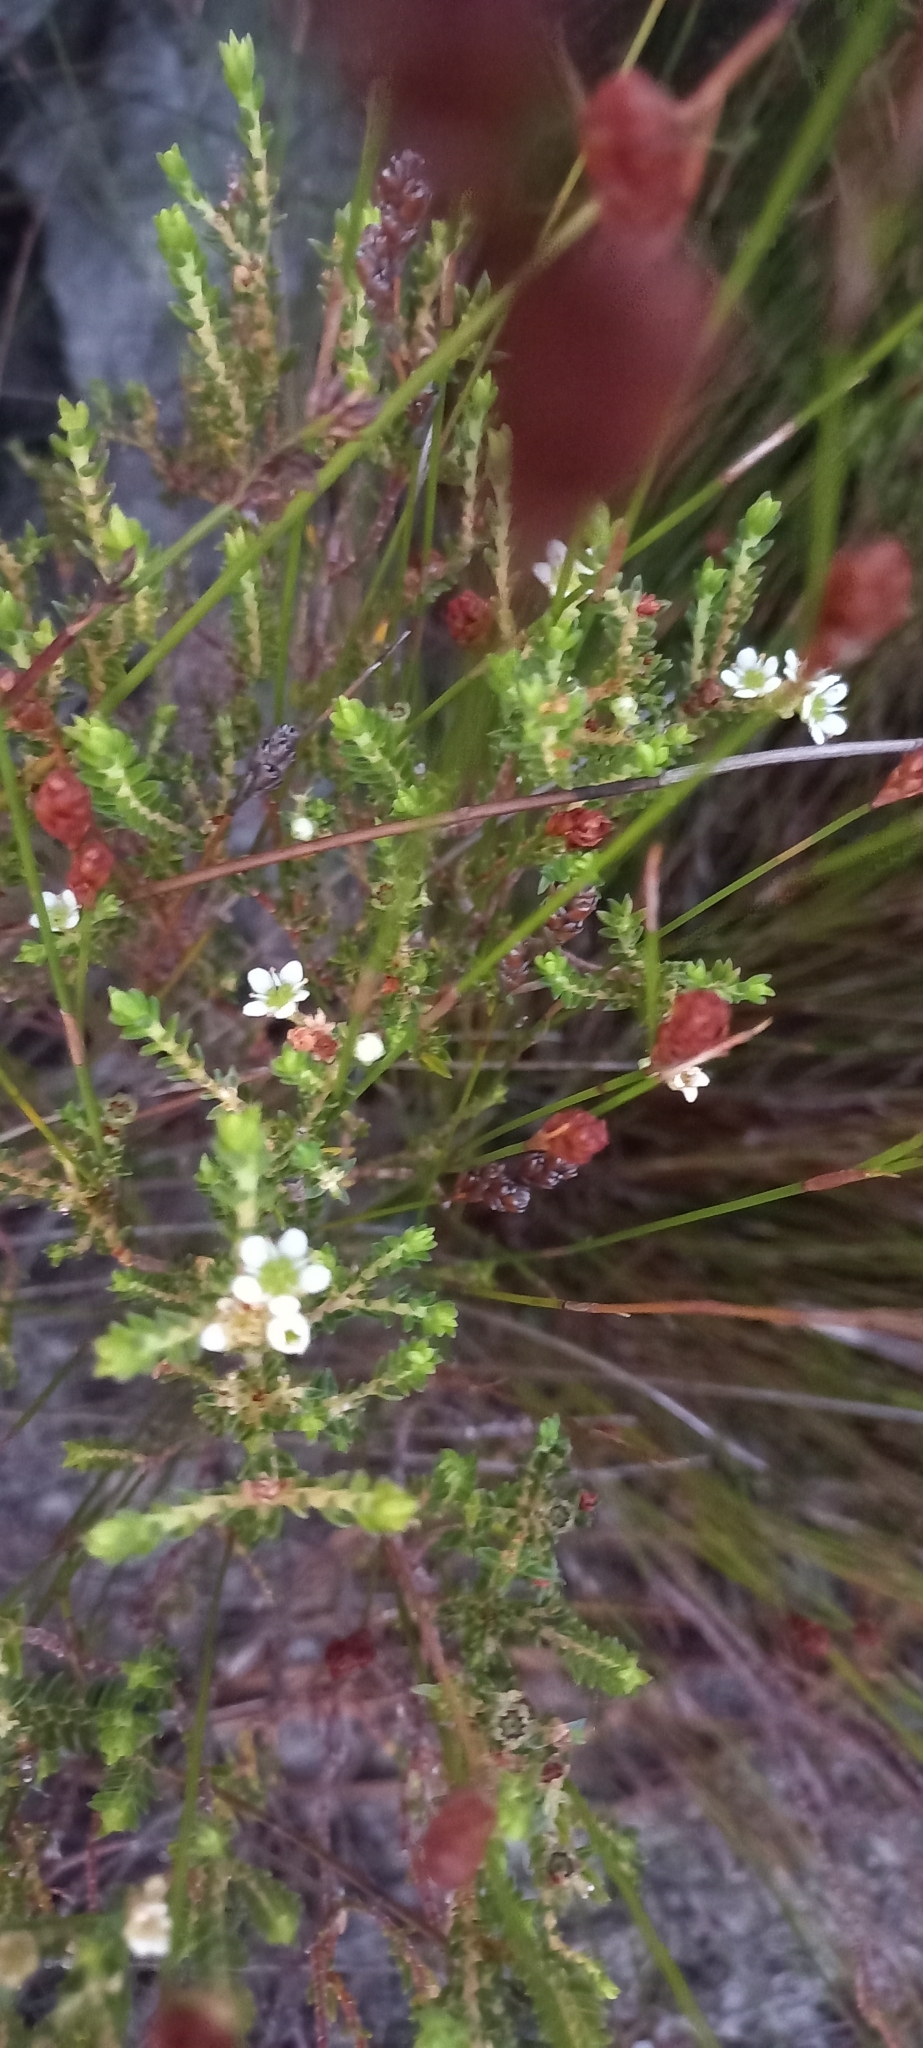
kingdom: Plantae
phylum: Tracheophyta
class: Magnoliopsida
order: Sapindales
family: Rutaceae
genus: Diosma
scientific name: Diosma oppositifolia
